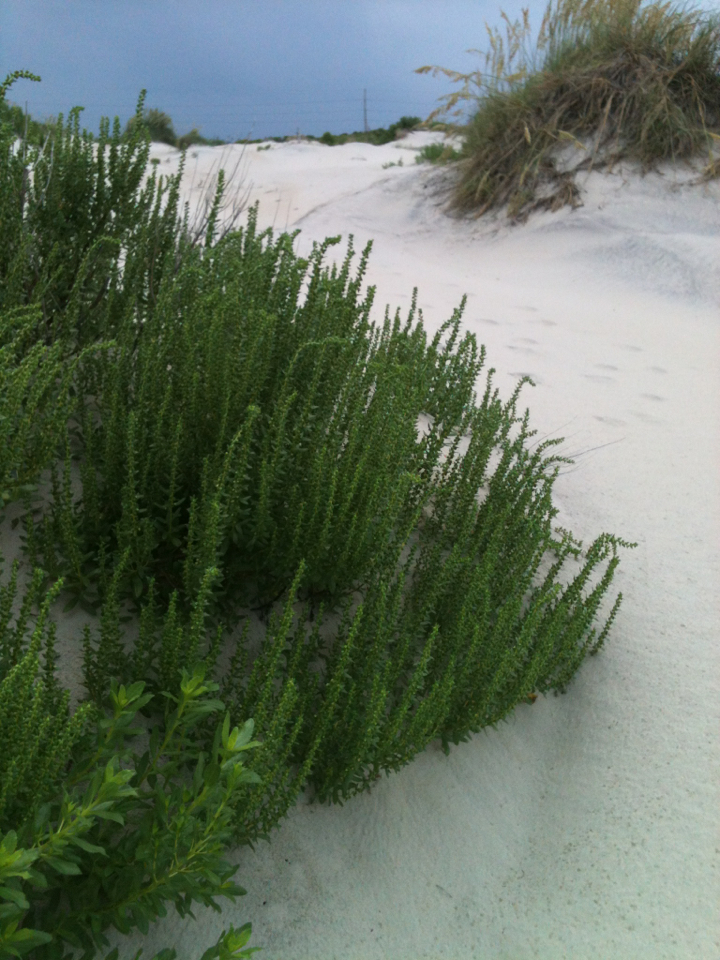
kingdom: Plantae
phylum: Tracheophyta
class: Magnoliopsida
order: Asterales
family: Asteraceae
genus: Iva
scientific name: Iva imbricata
